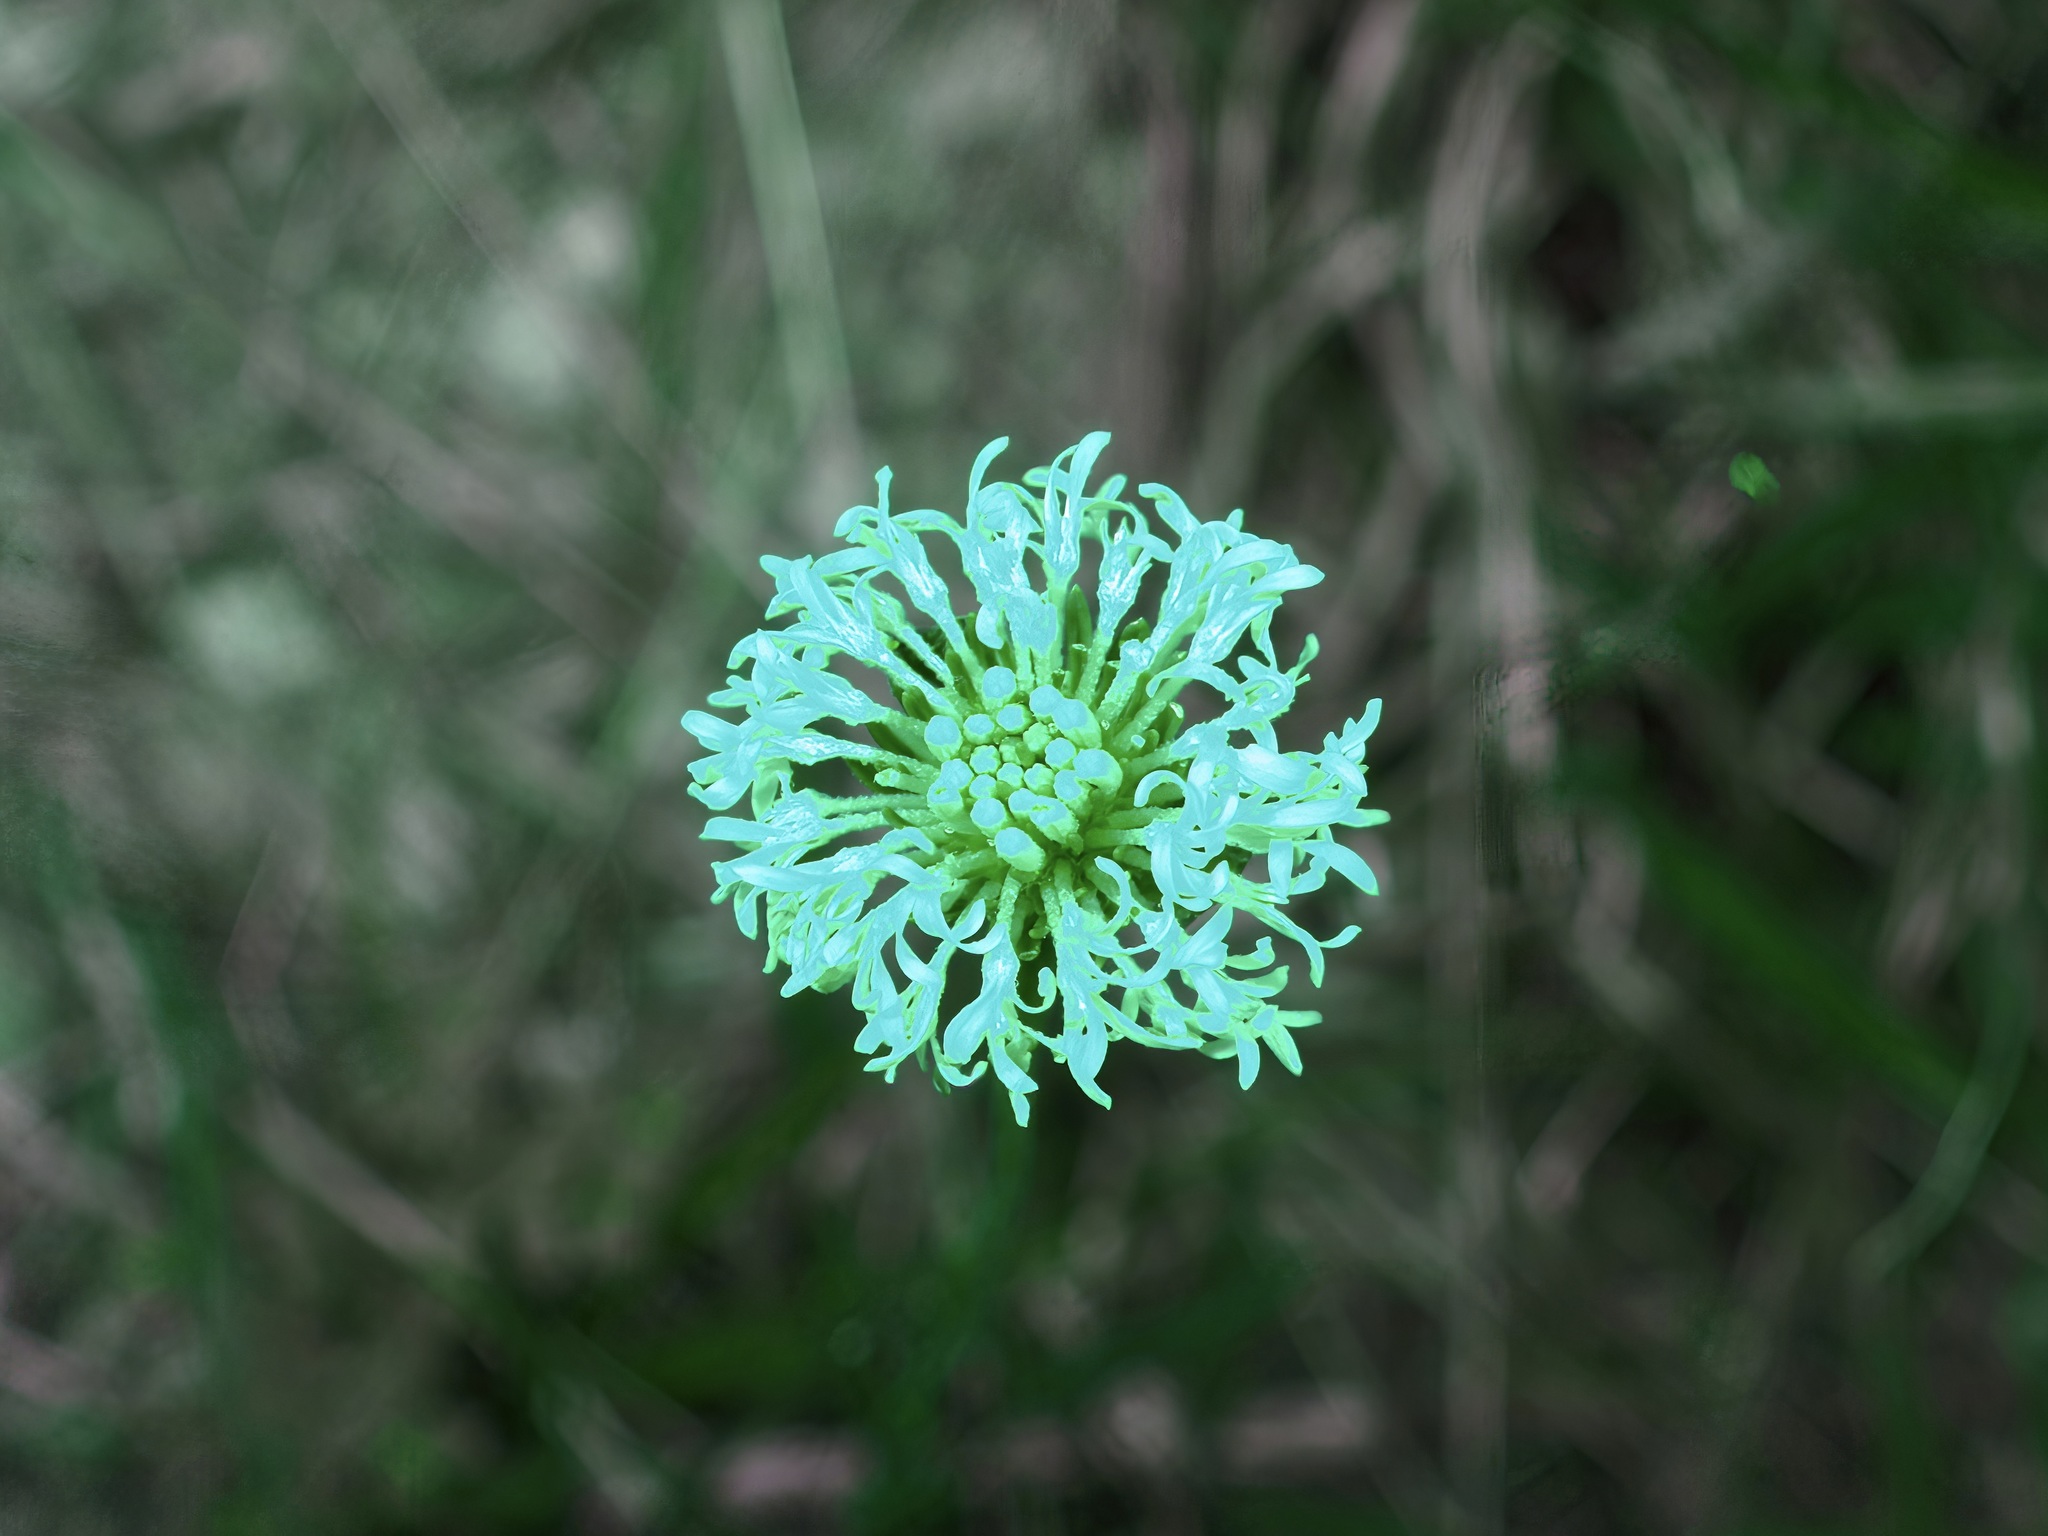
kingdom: Plantae
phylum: Tracheophyta
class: Magnoliopsida
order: Asterales
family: Asteraceae
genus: Marshallia
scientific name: Marshallia caespitosa
